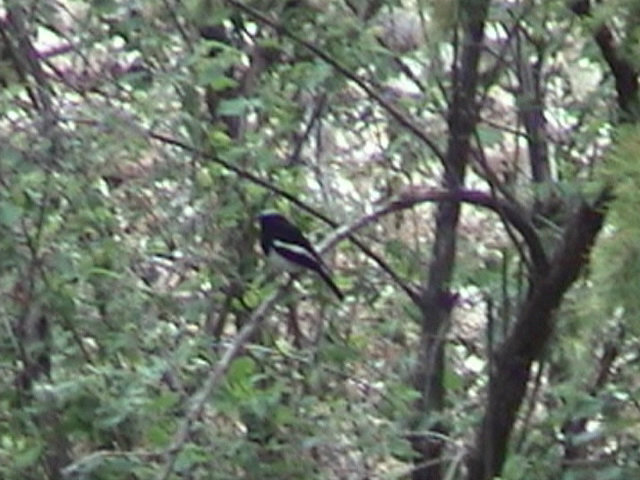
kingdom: Animalia
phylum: Chordata
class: Aves
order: Passeriformes
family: Muscicapidae
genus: Phoenicurus
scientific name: Phoenicurus coeruleocephala
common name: Blue-capped redstart
